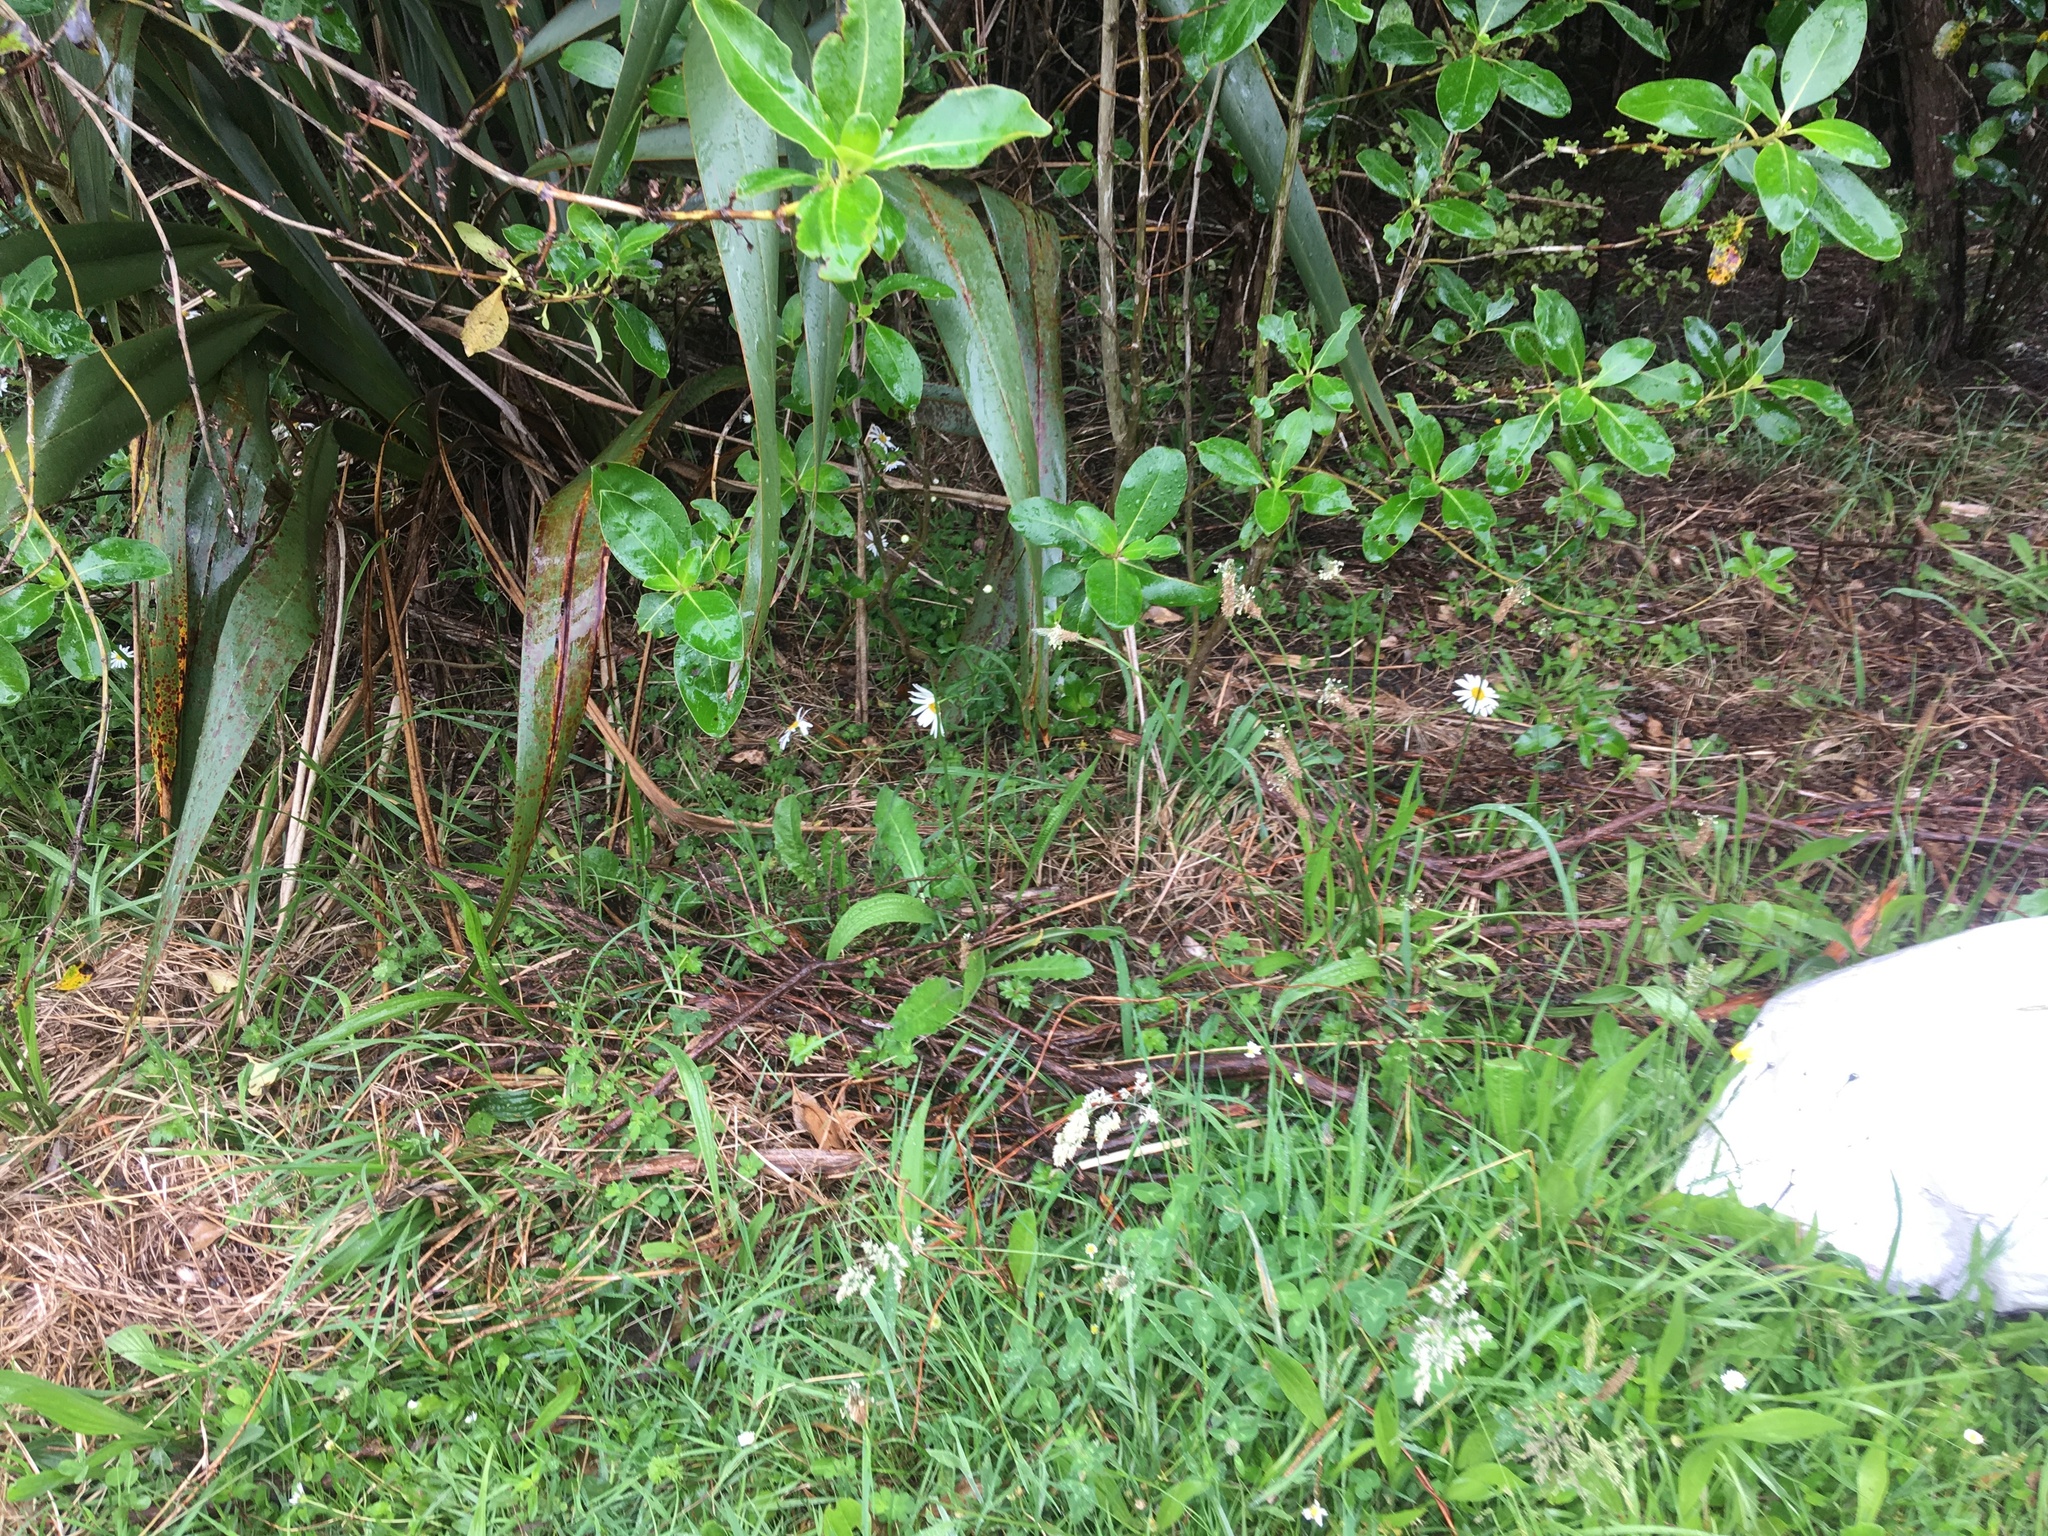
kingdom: Plantae
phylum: Tracheophyta
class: Magnoliopsida
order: Lamiales
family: Plantaginaceae
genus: Plantago
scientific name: Plantago lanceolata
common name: Ribwort plantain
